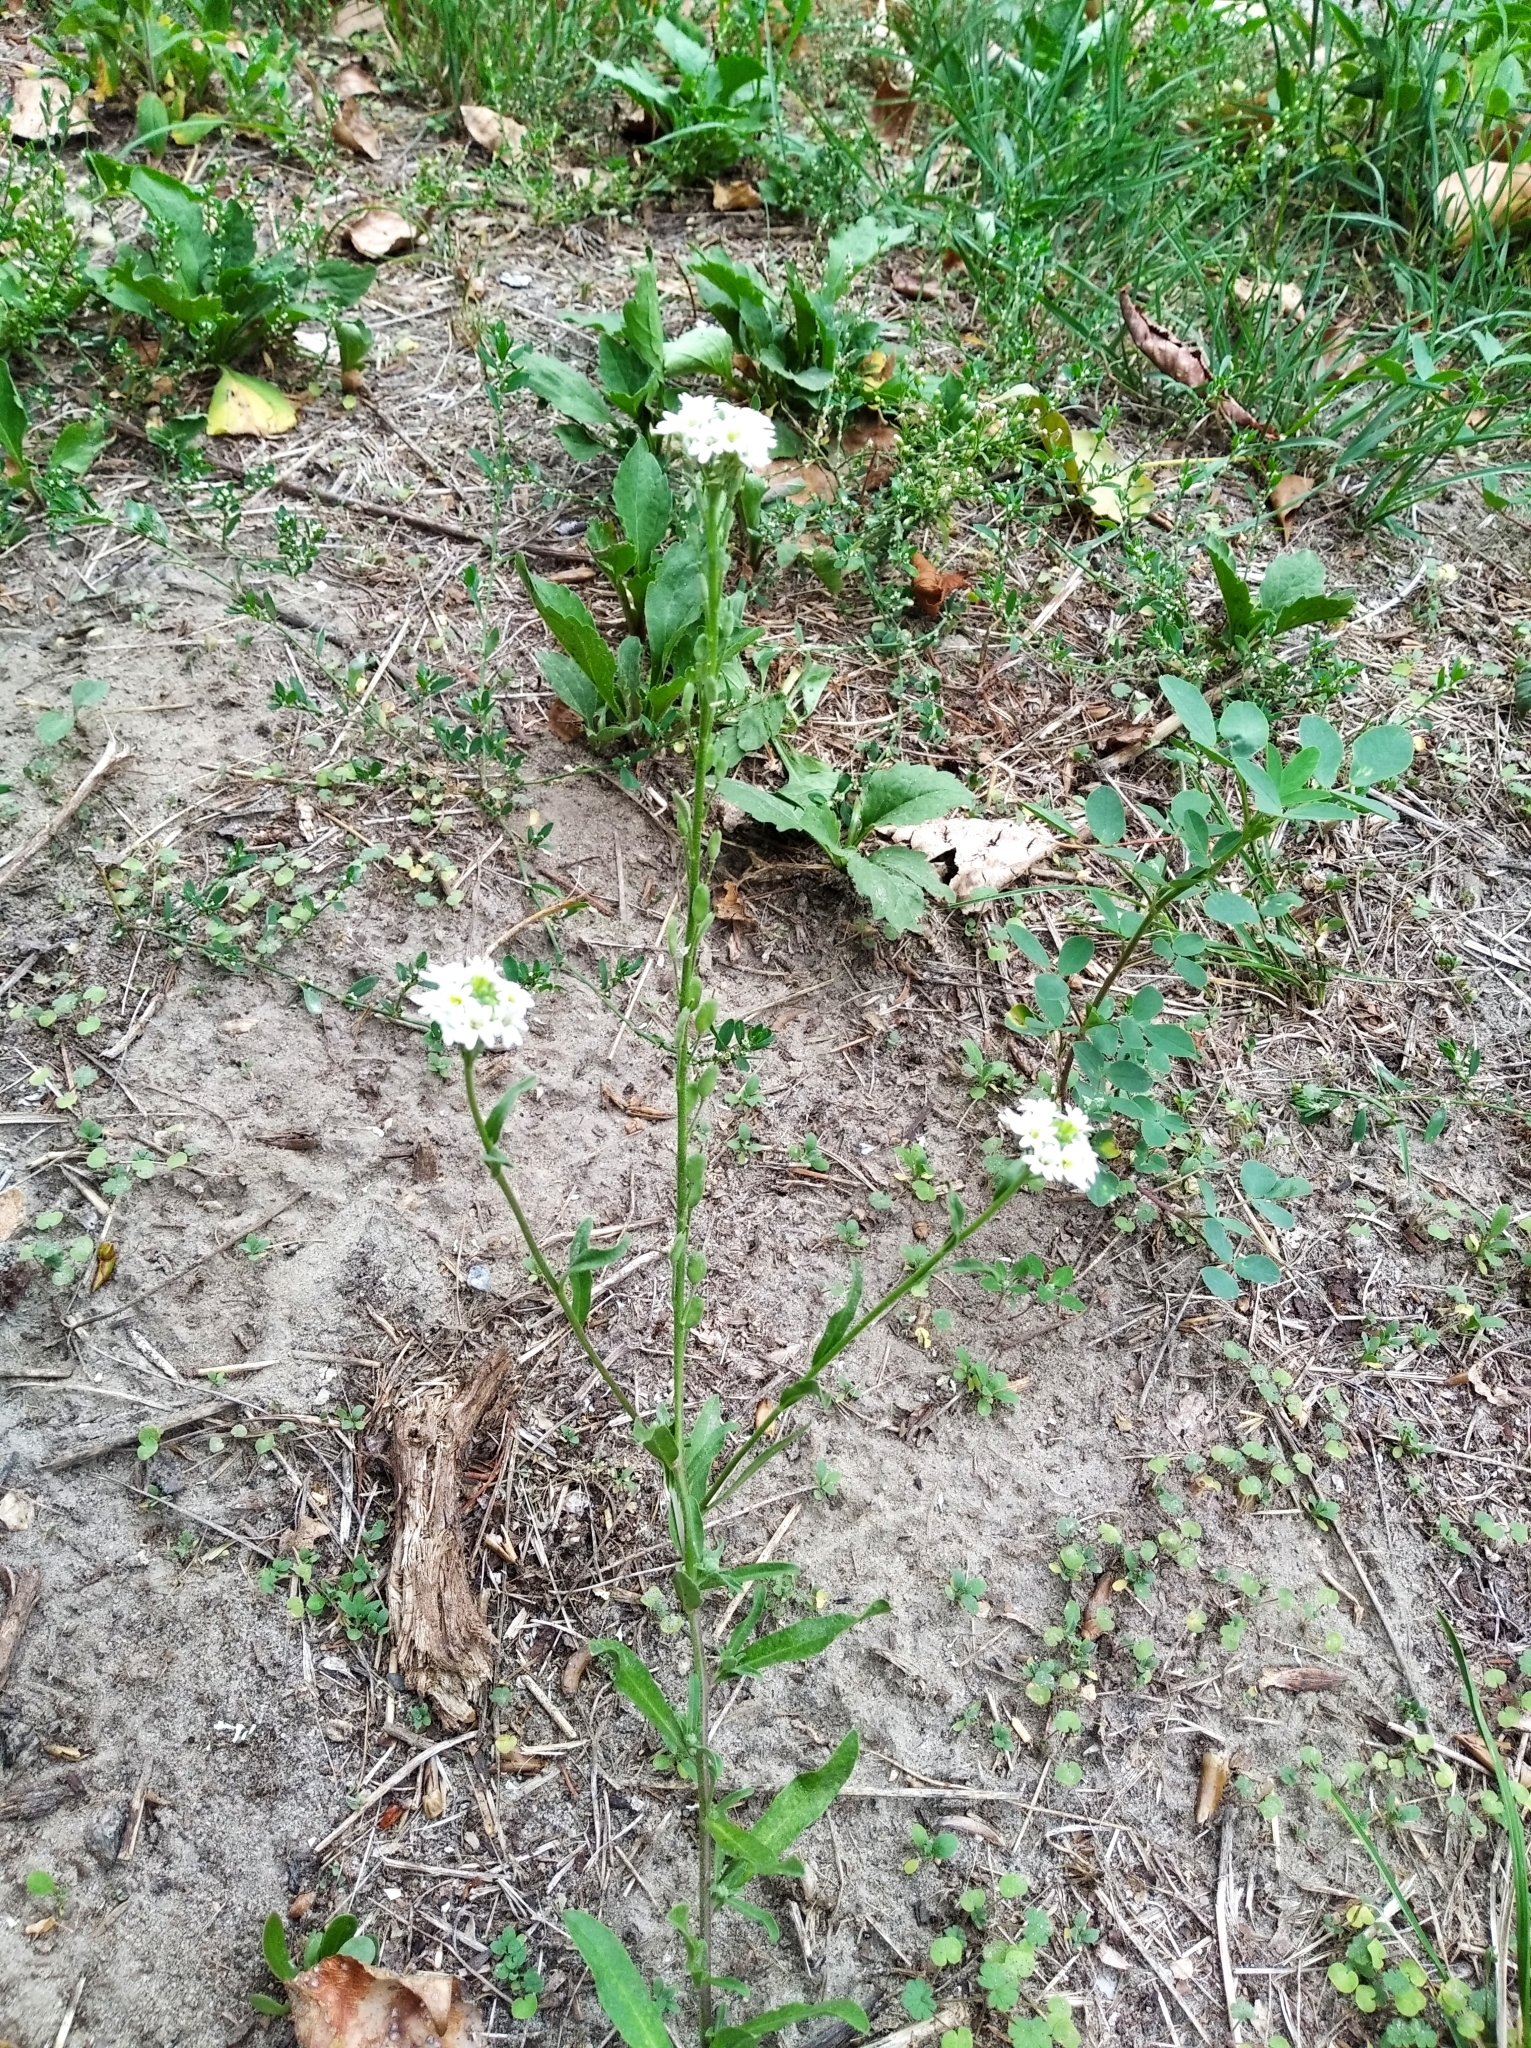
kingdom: Plantae
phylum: Tracheophyta
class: Magnoliopsida
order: Brassicales
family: Brassicaceae
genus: Berteroa
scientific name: Berteroa incana
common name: Hoary alison
